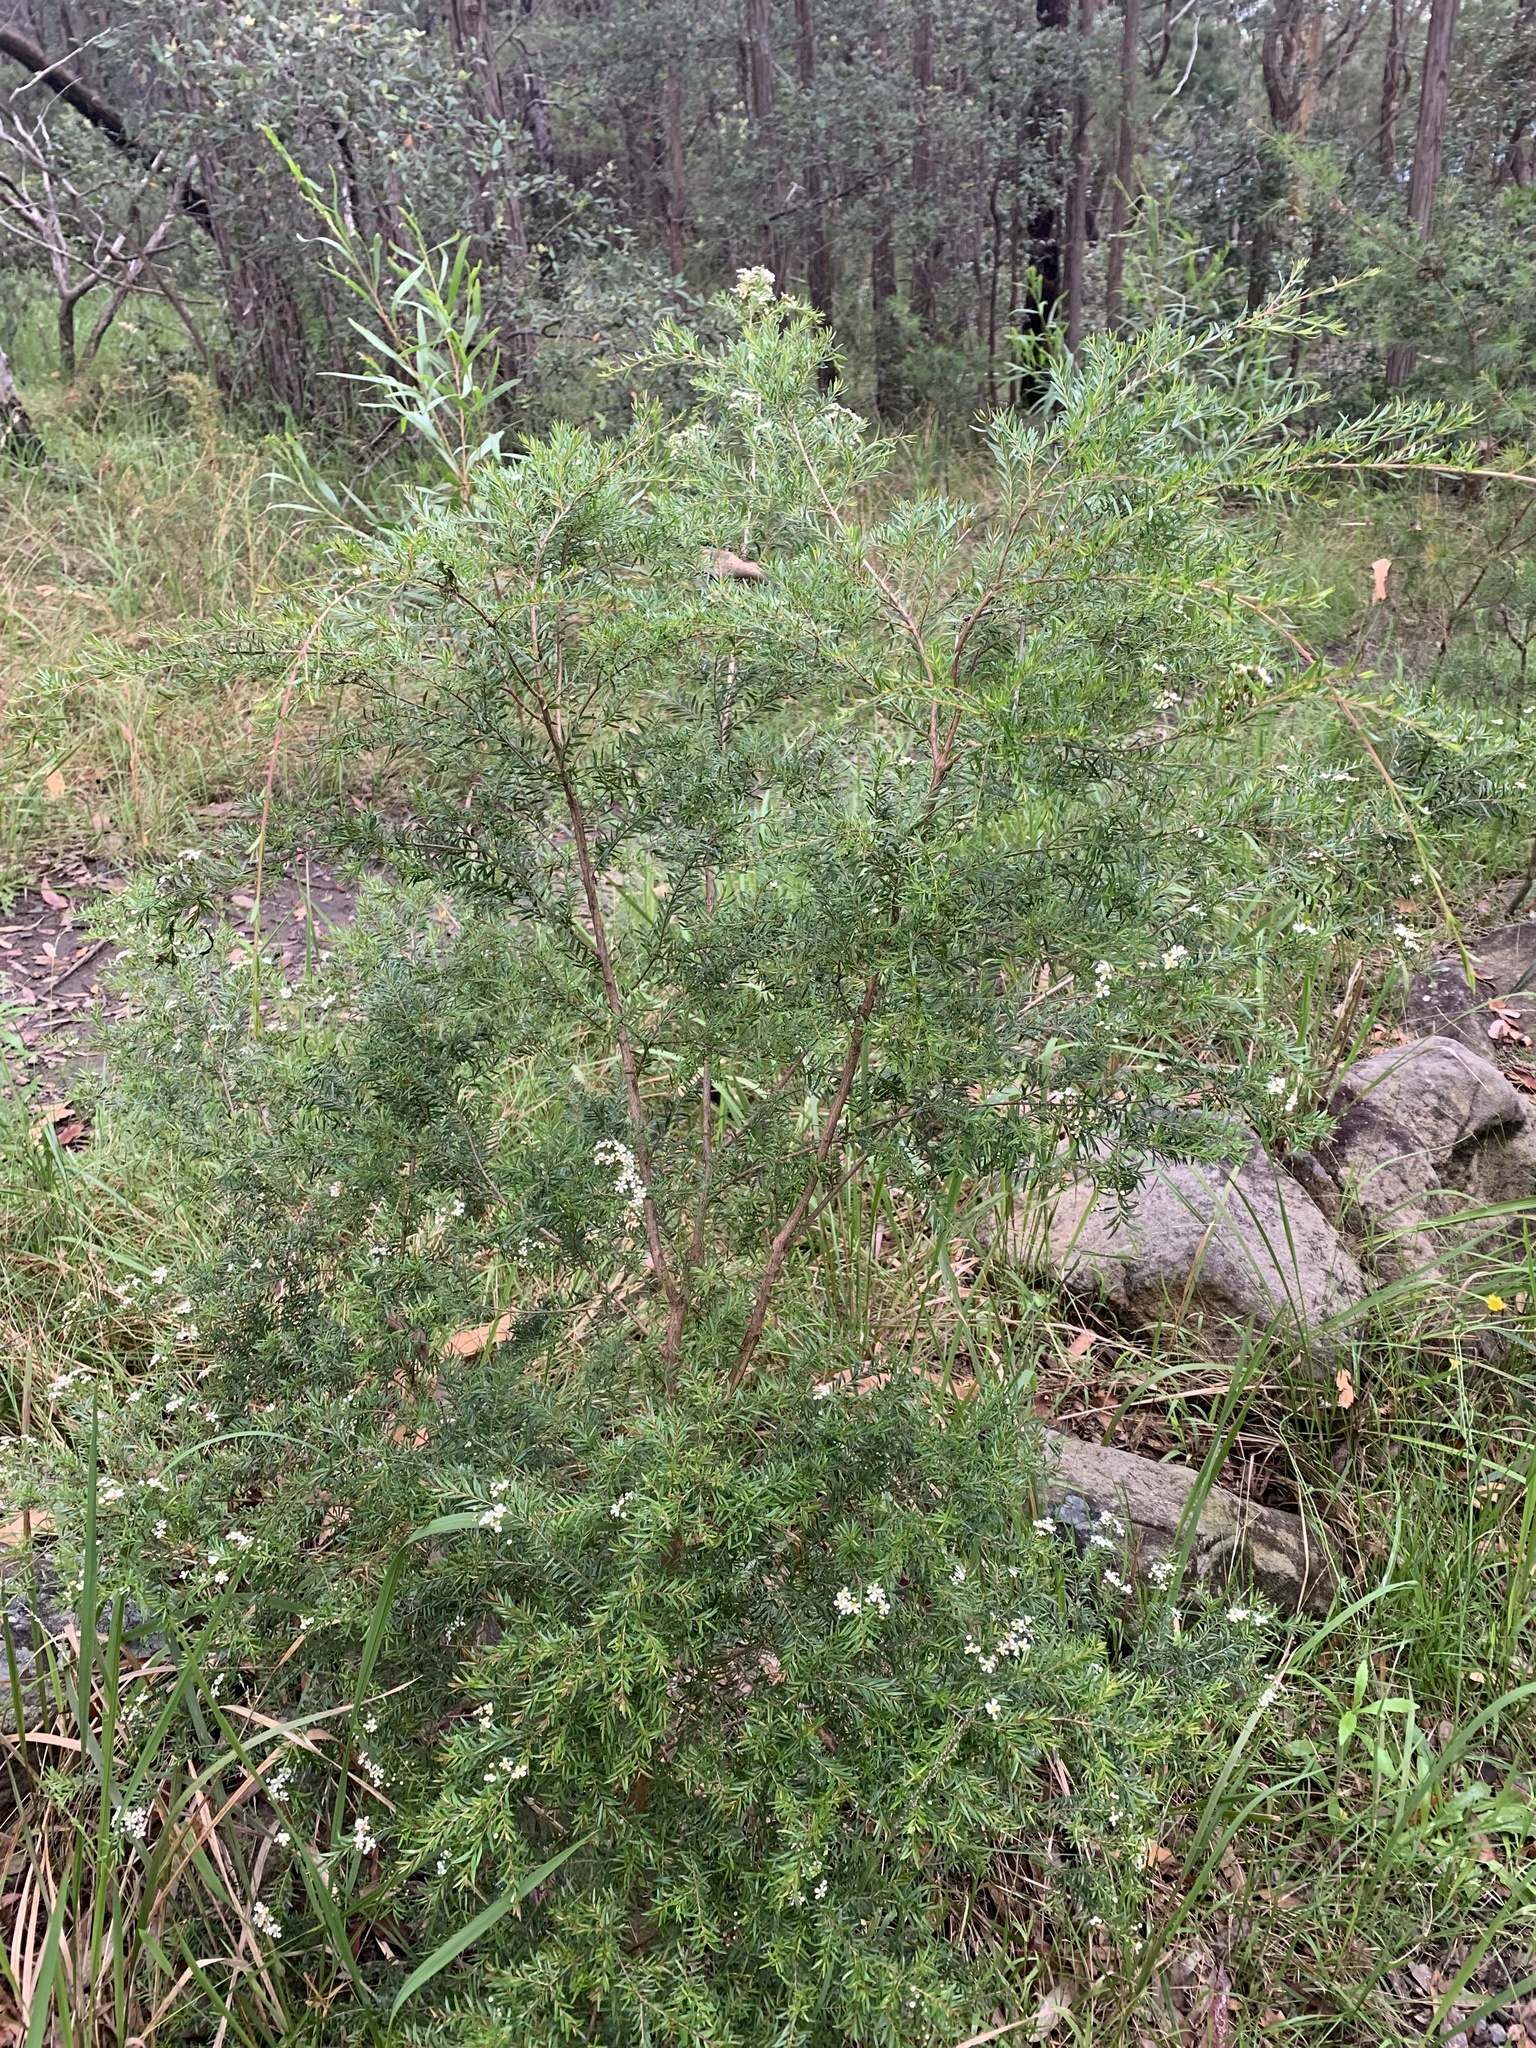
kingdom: Plantae
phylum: Tracheophyta
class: Magnoliopsida
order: Myrtales
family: Myrtaceae
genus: Sannantha
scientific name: Sannantha pluriflora
